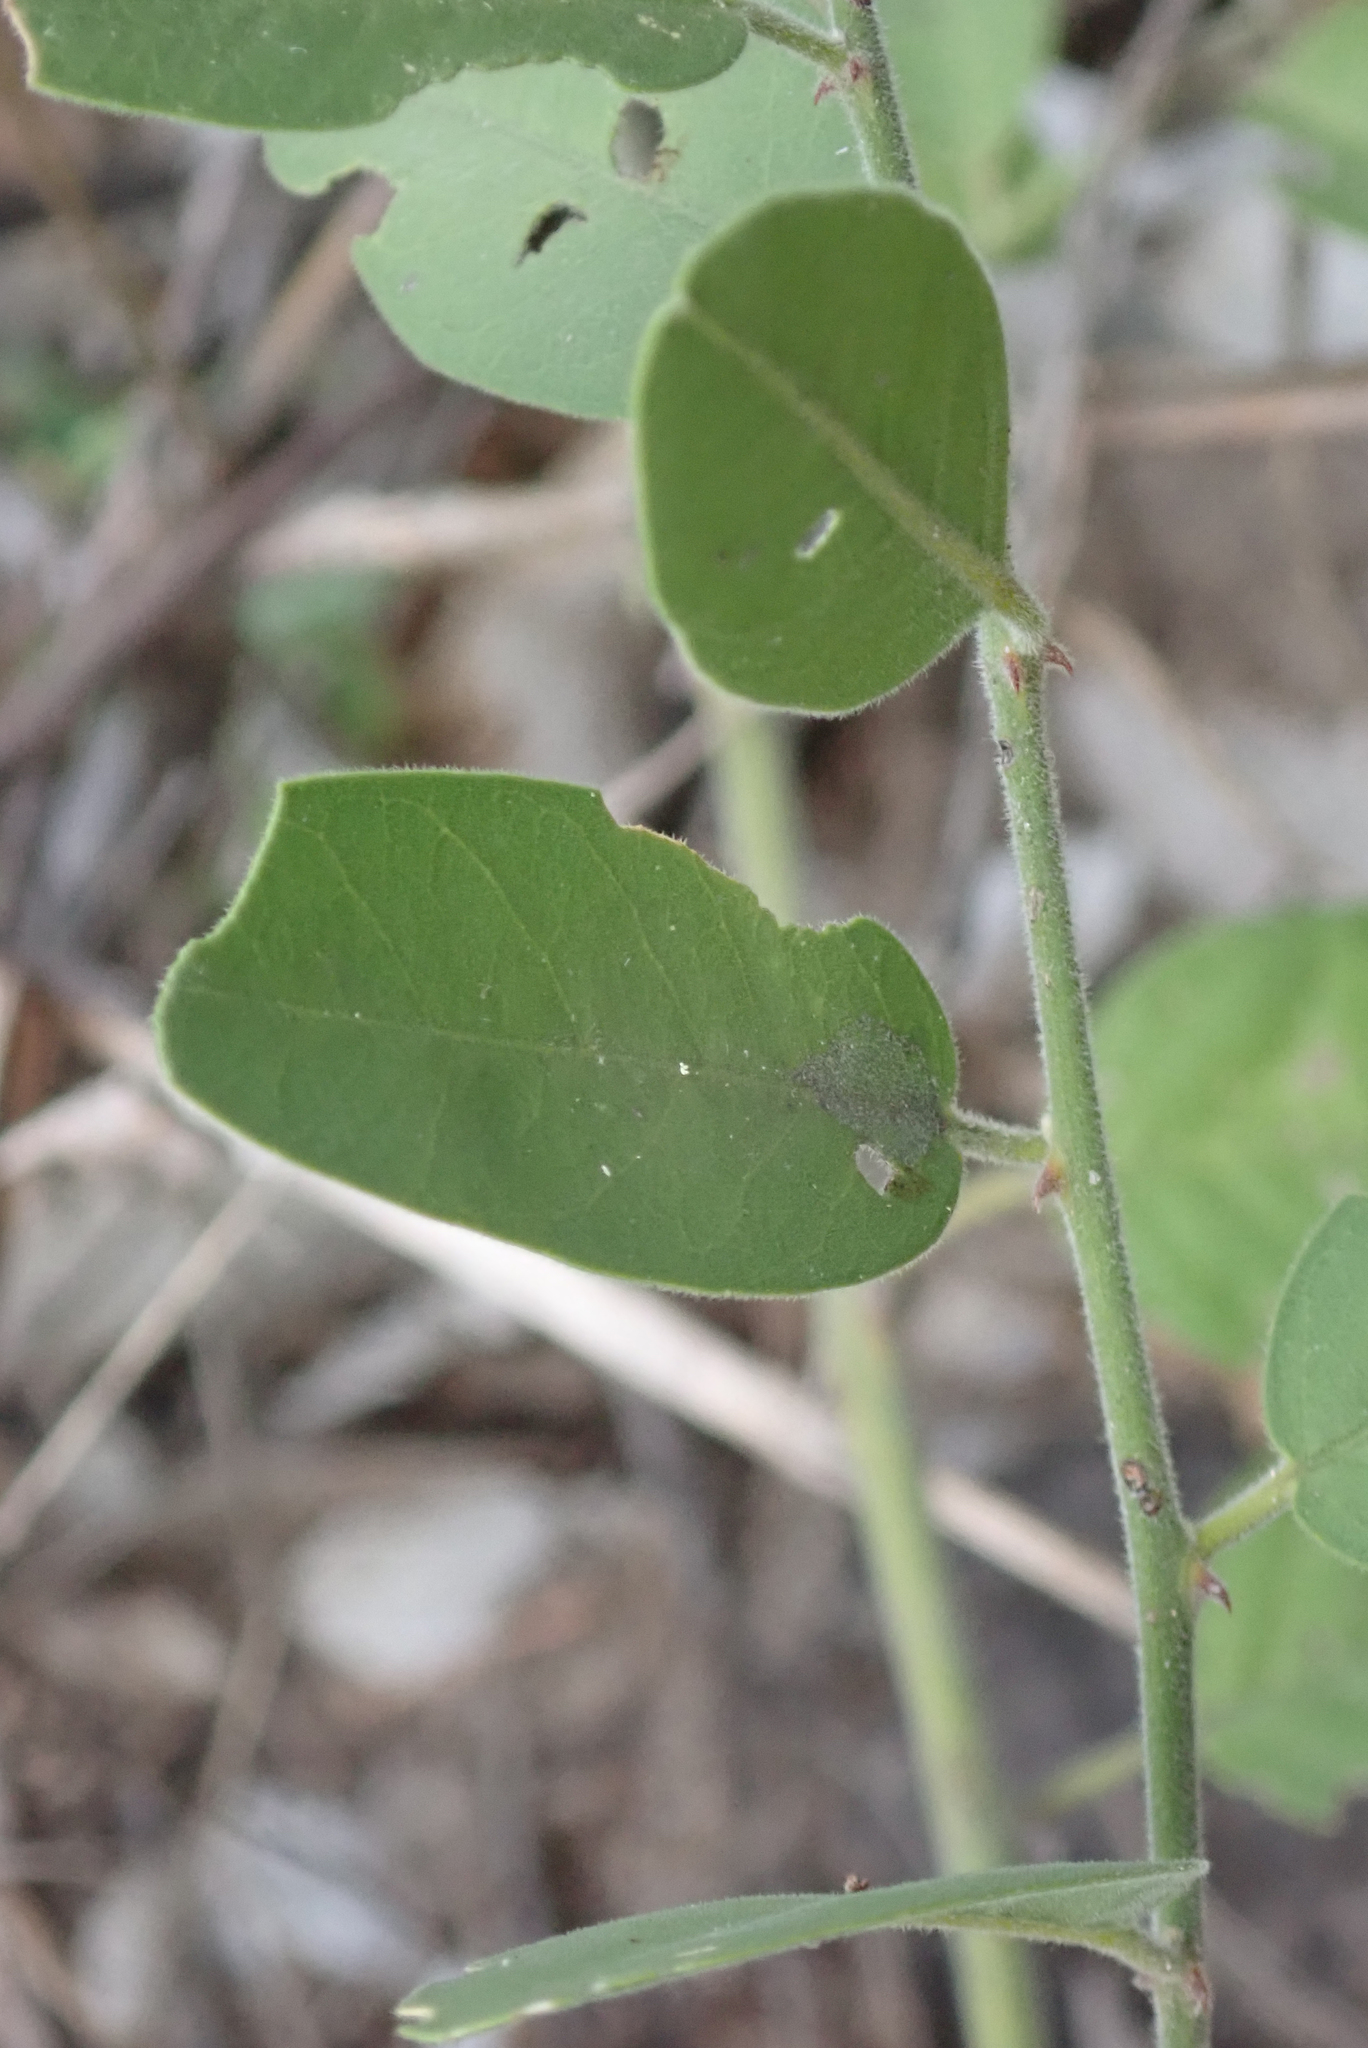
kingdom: Plantae
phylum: Tracheophyta
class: Magnoliopsida
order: Brassicales
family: Capparaceae
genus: Capparis
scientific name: Capparis tomentosa
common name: African caper
